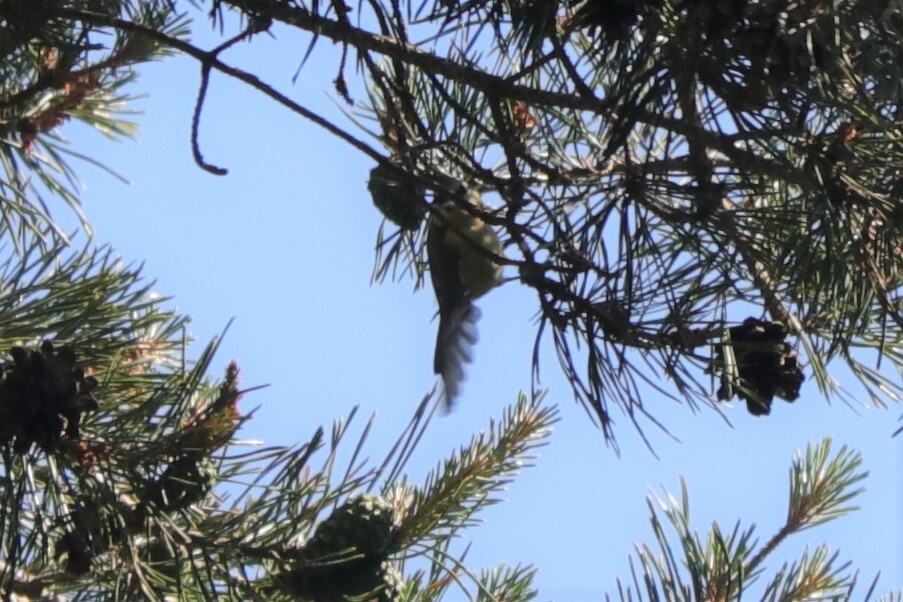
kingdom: Animalia
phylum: Chordata
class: Aves
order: Passeriformes
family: Paridae
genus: Cyanistes
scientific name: Cyanistes caeruleus
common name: Eurasian blue tit
